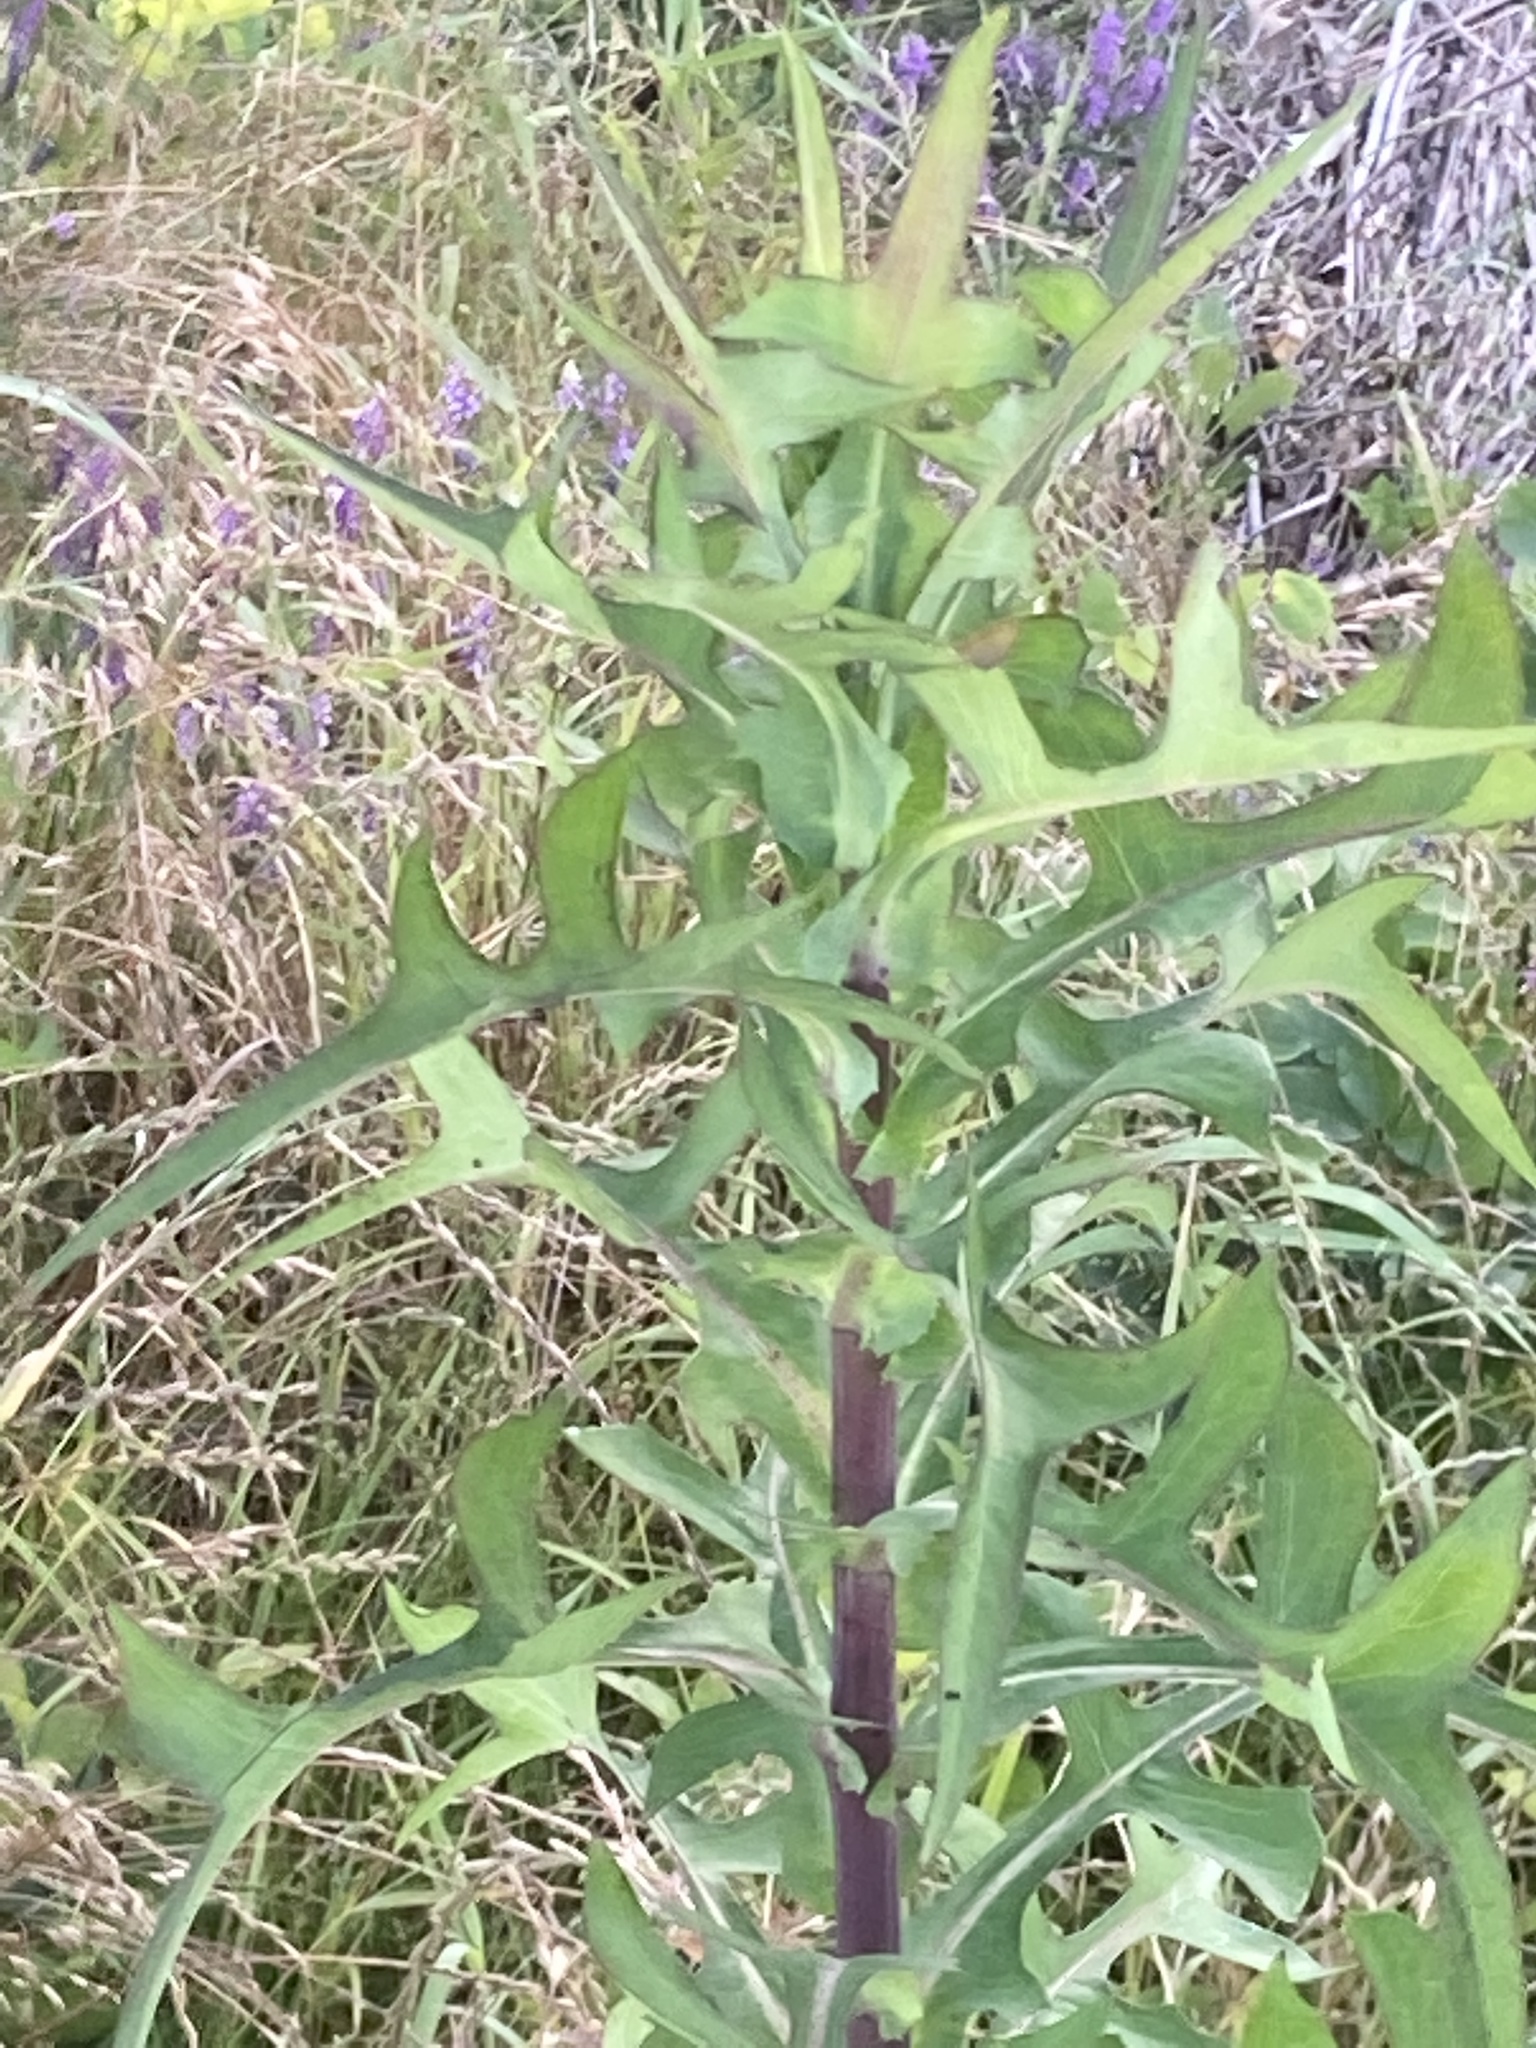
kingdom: Plantae
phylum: Tracheophyta
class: Magnoliopsida
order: Asterales
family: Asteraceae
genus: Lactuca
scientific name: Lactuca canadensis
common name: Canada lettuce
